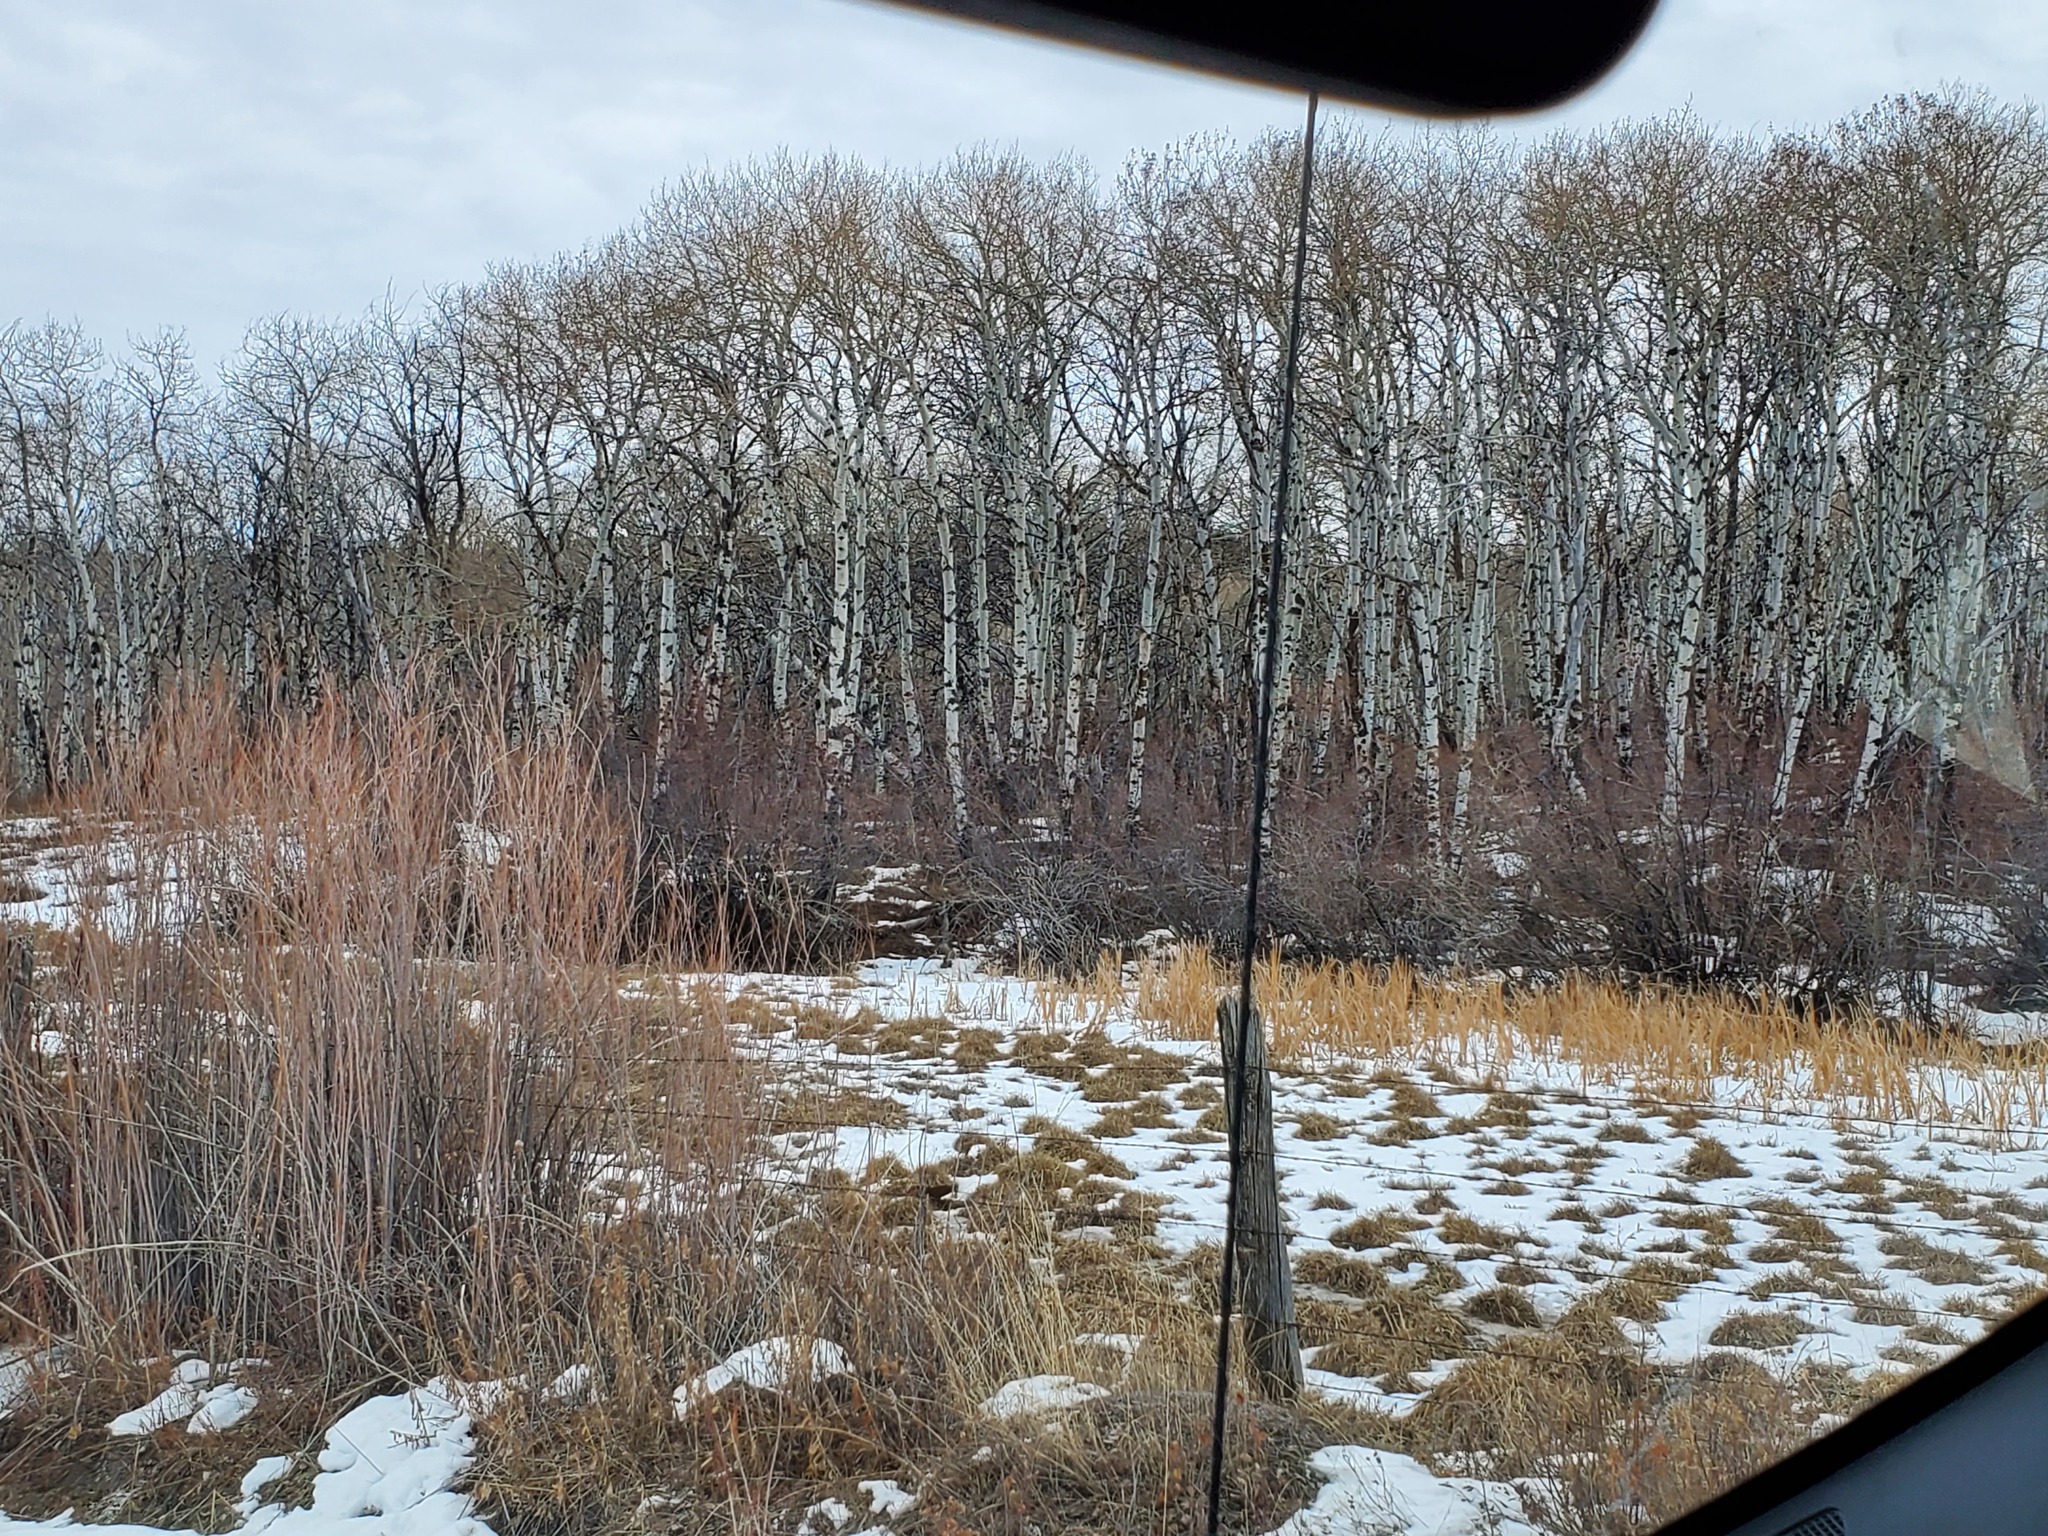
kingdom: Plantae
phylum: Tracheophyta
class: Magnoliopsida
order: Malpighiales
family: Salicaceae
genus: Populus
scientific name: Populus tremuloides
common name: Quaking aspen
